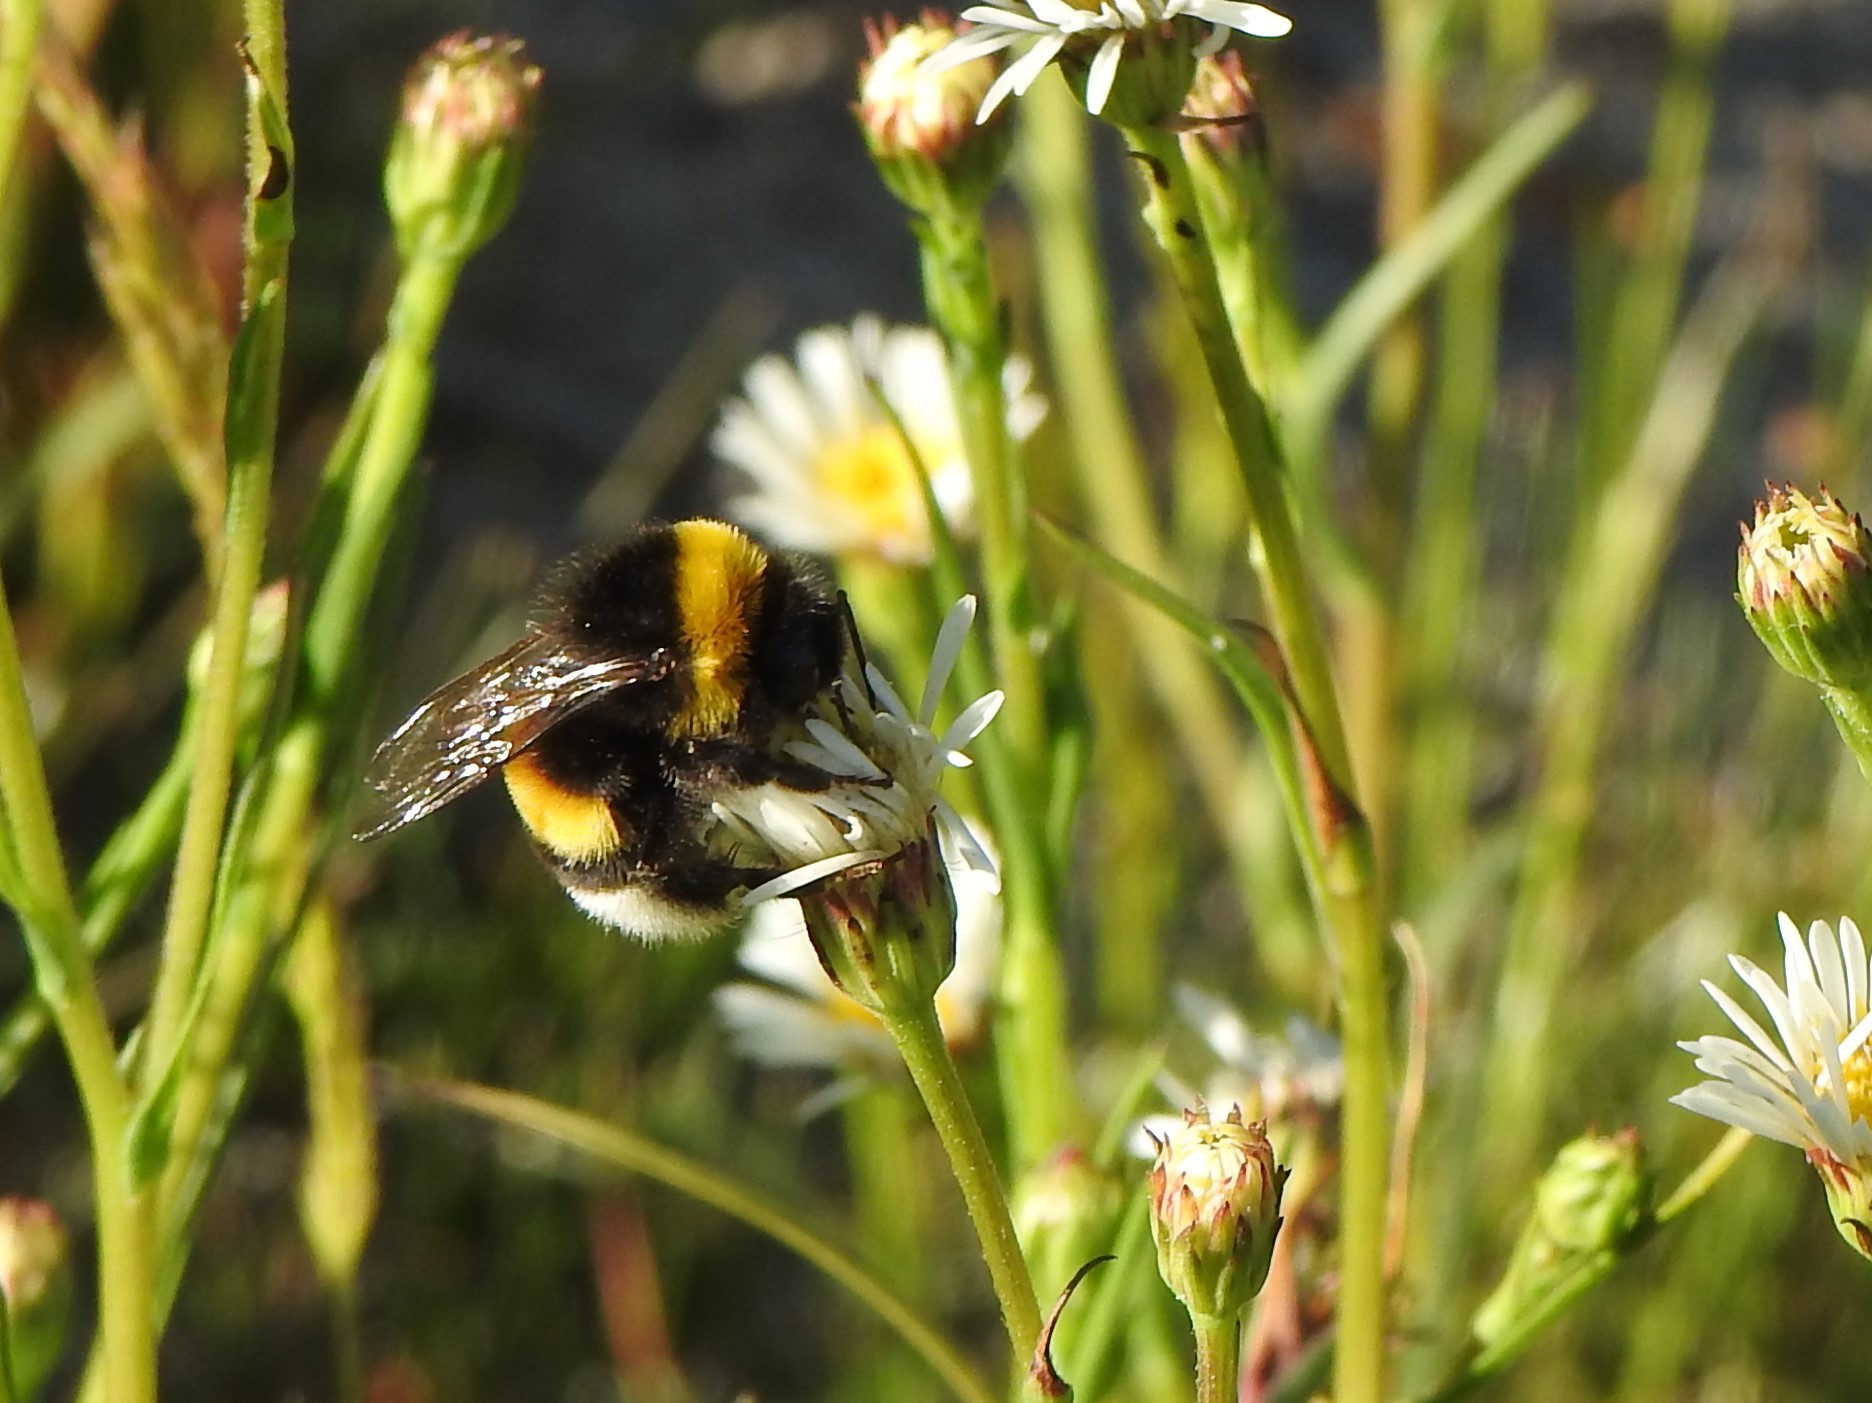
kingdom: Animalia
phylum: Arthropoda
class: Insecta
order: Hymenoptera
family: Apidae
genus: Bombus
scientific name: Bombus terrestris
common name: Buff-tailed bumblebee
